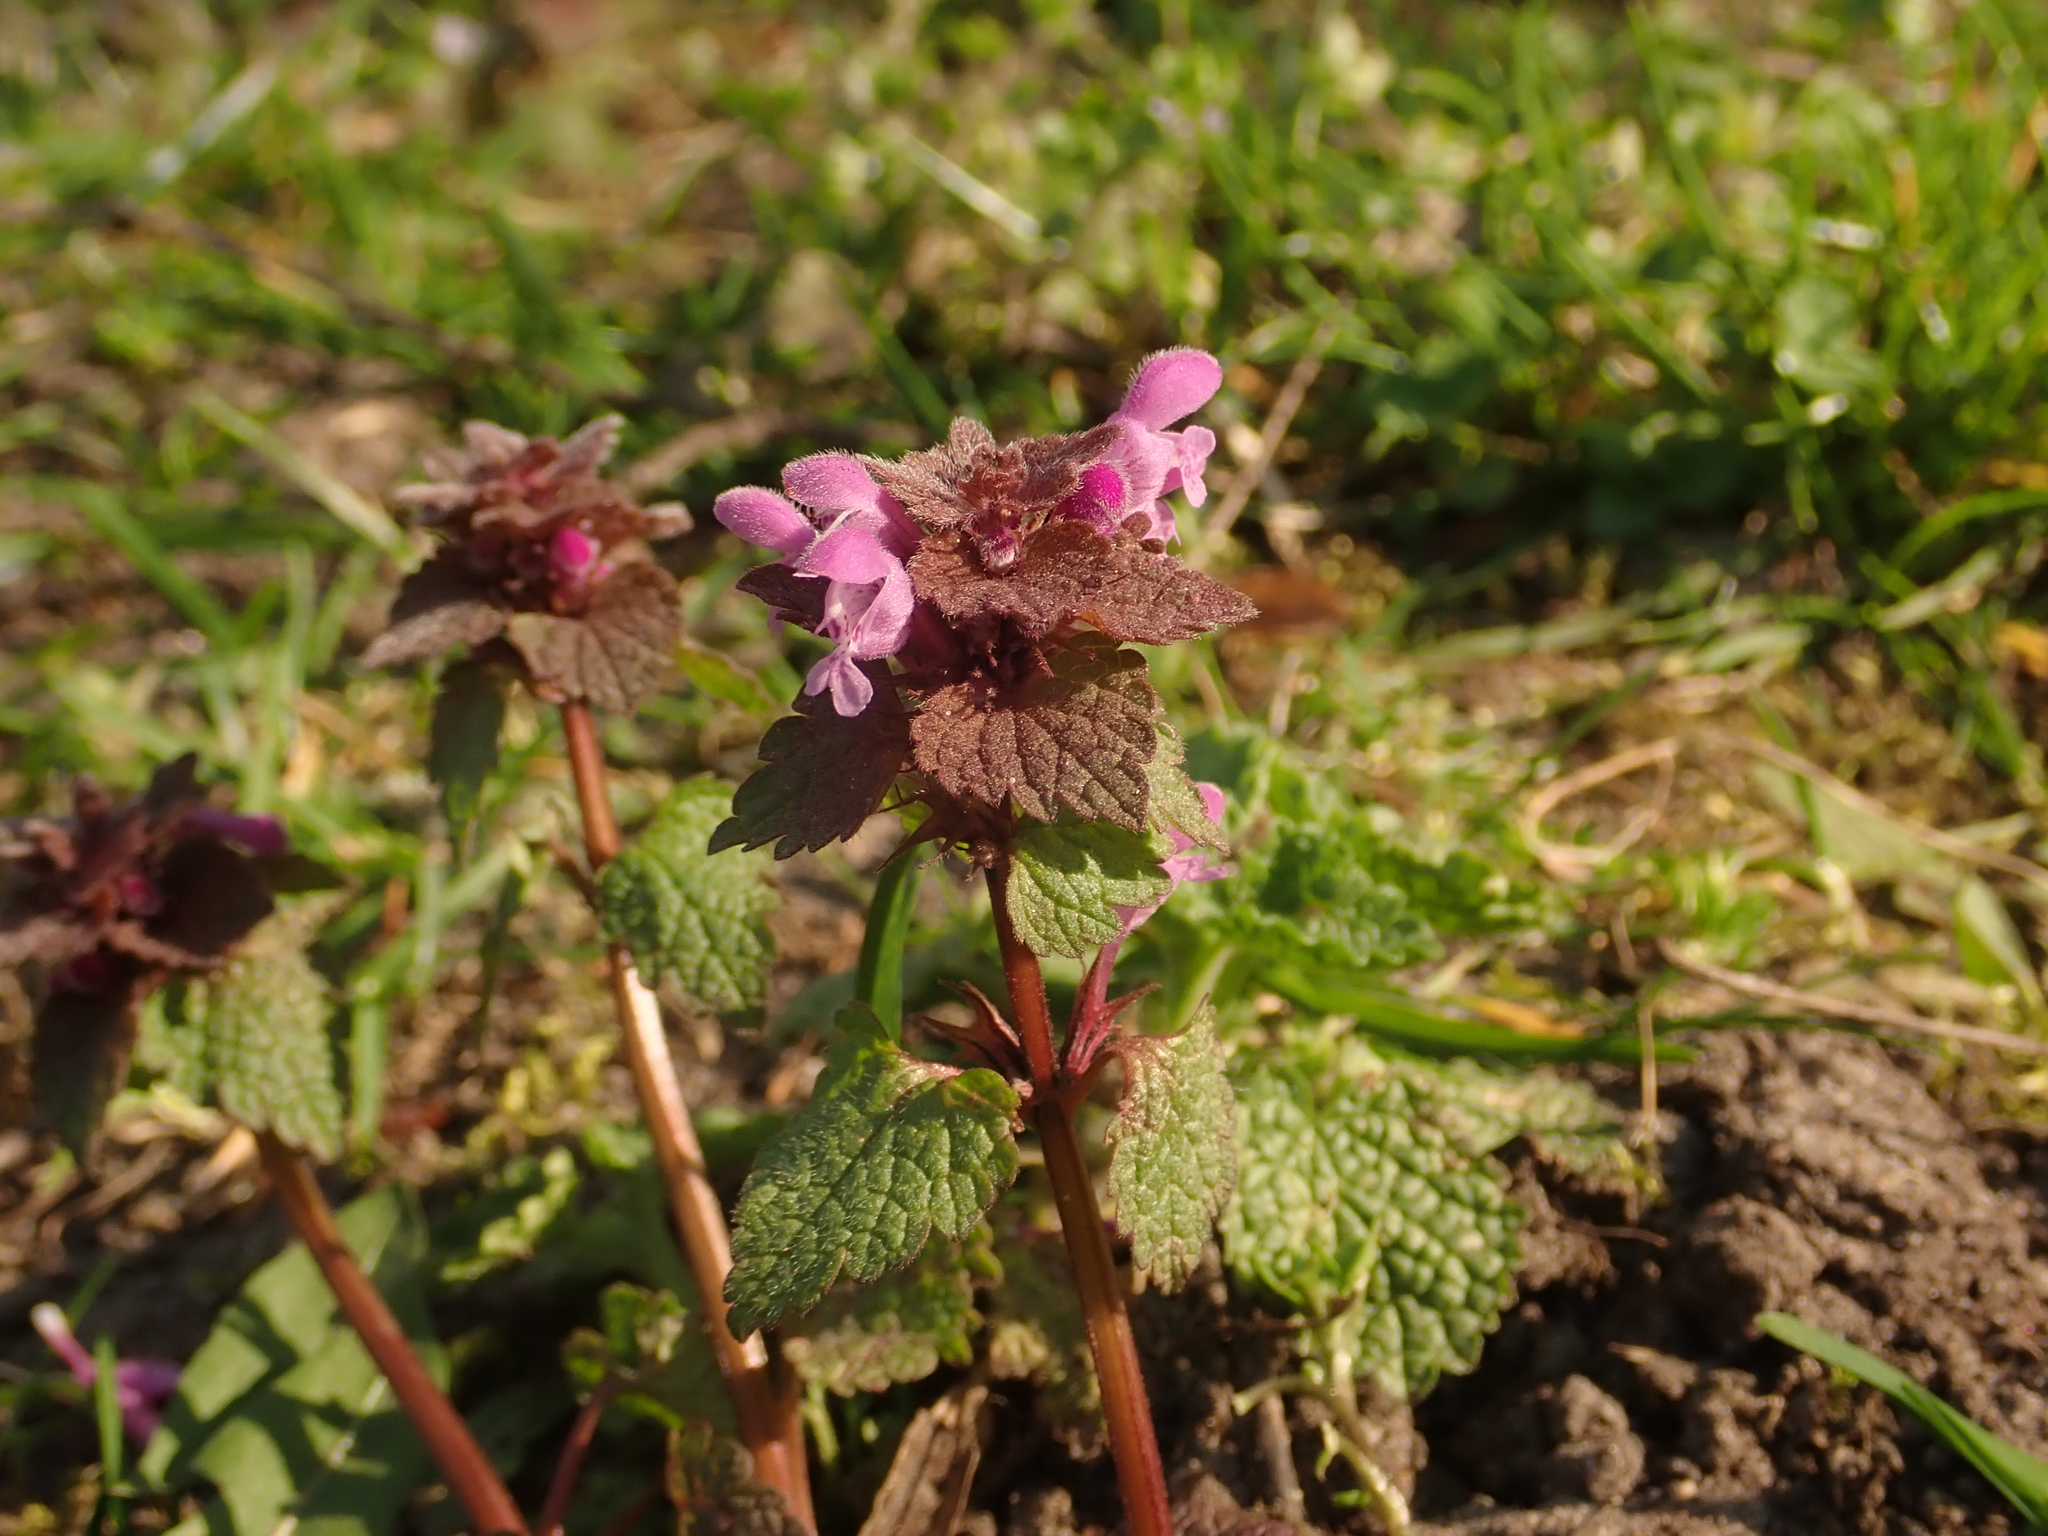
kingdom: Plantae
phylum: Tracheophyta
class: Magnoliopsida
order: Lamiales
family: Lamiaceae
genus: Lamium
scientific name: Lamium purpureum
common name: Red dead-nettle
